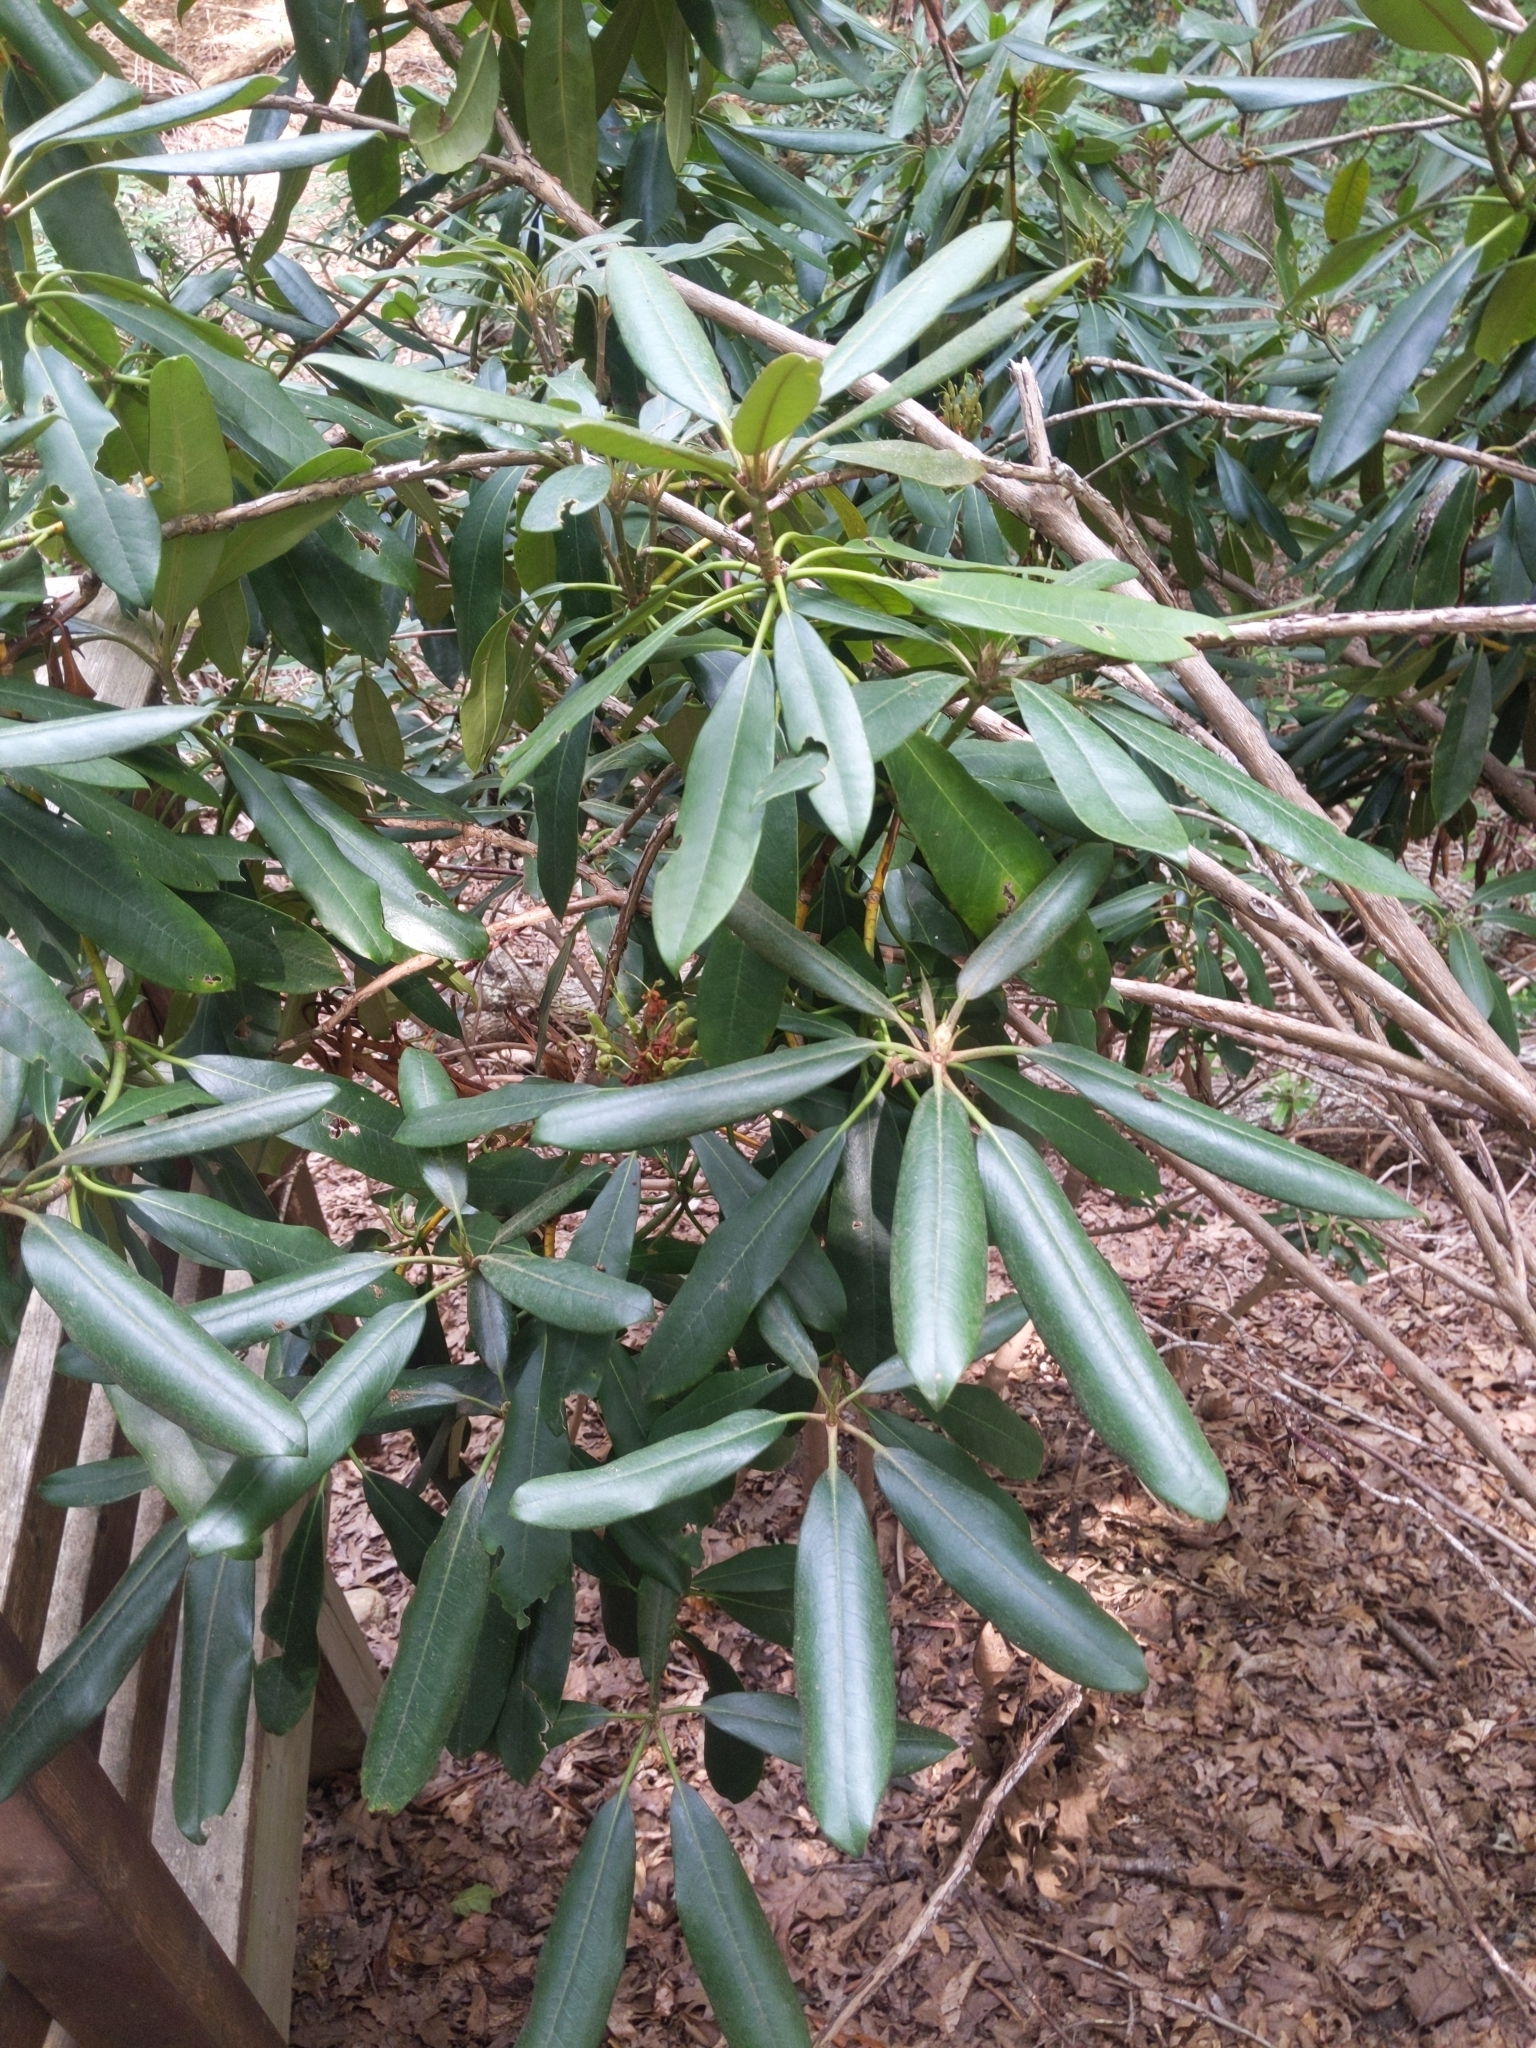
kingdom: Plantae
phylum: Tracheophyta
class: Magnoliopsida
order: Ericales
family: Ericaceae
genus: Rhododendron
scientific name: Rhododendron maximum
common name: Great rhododendron
